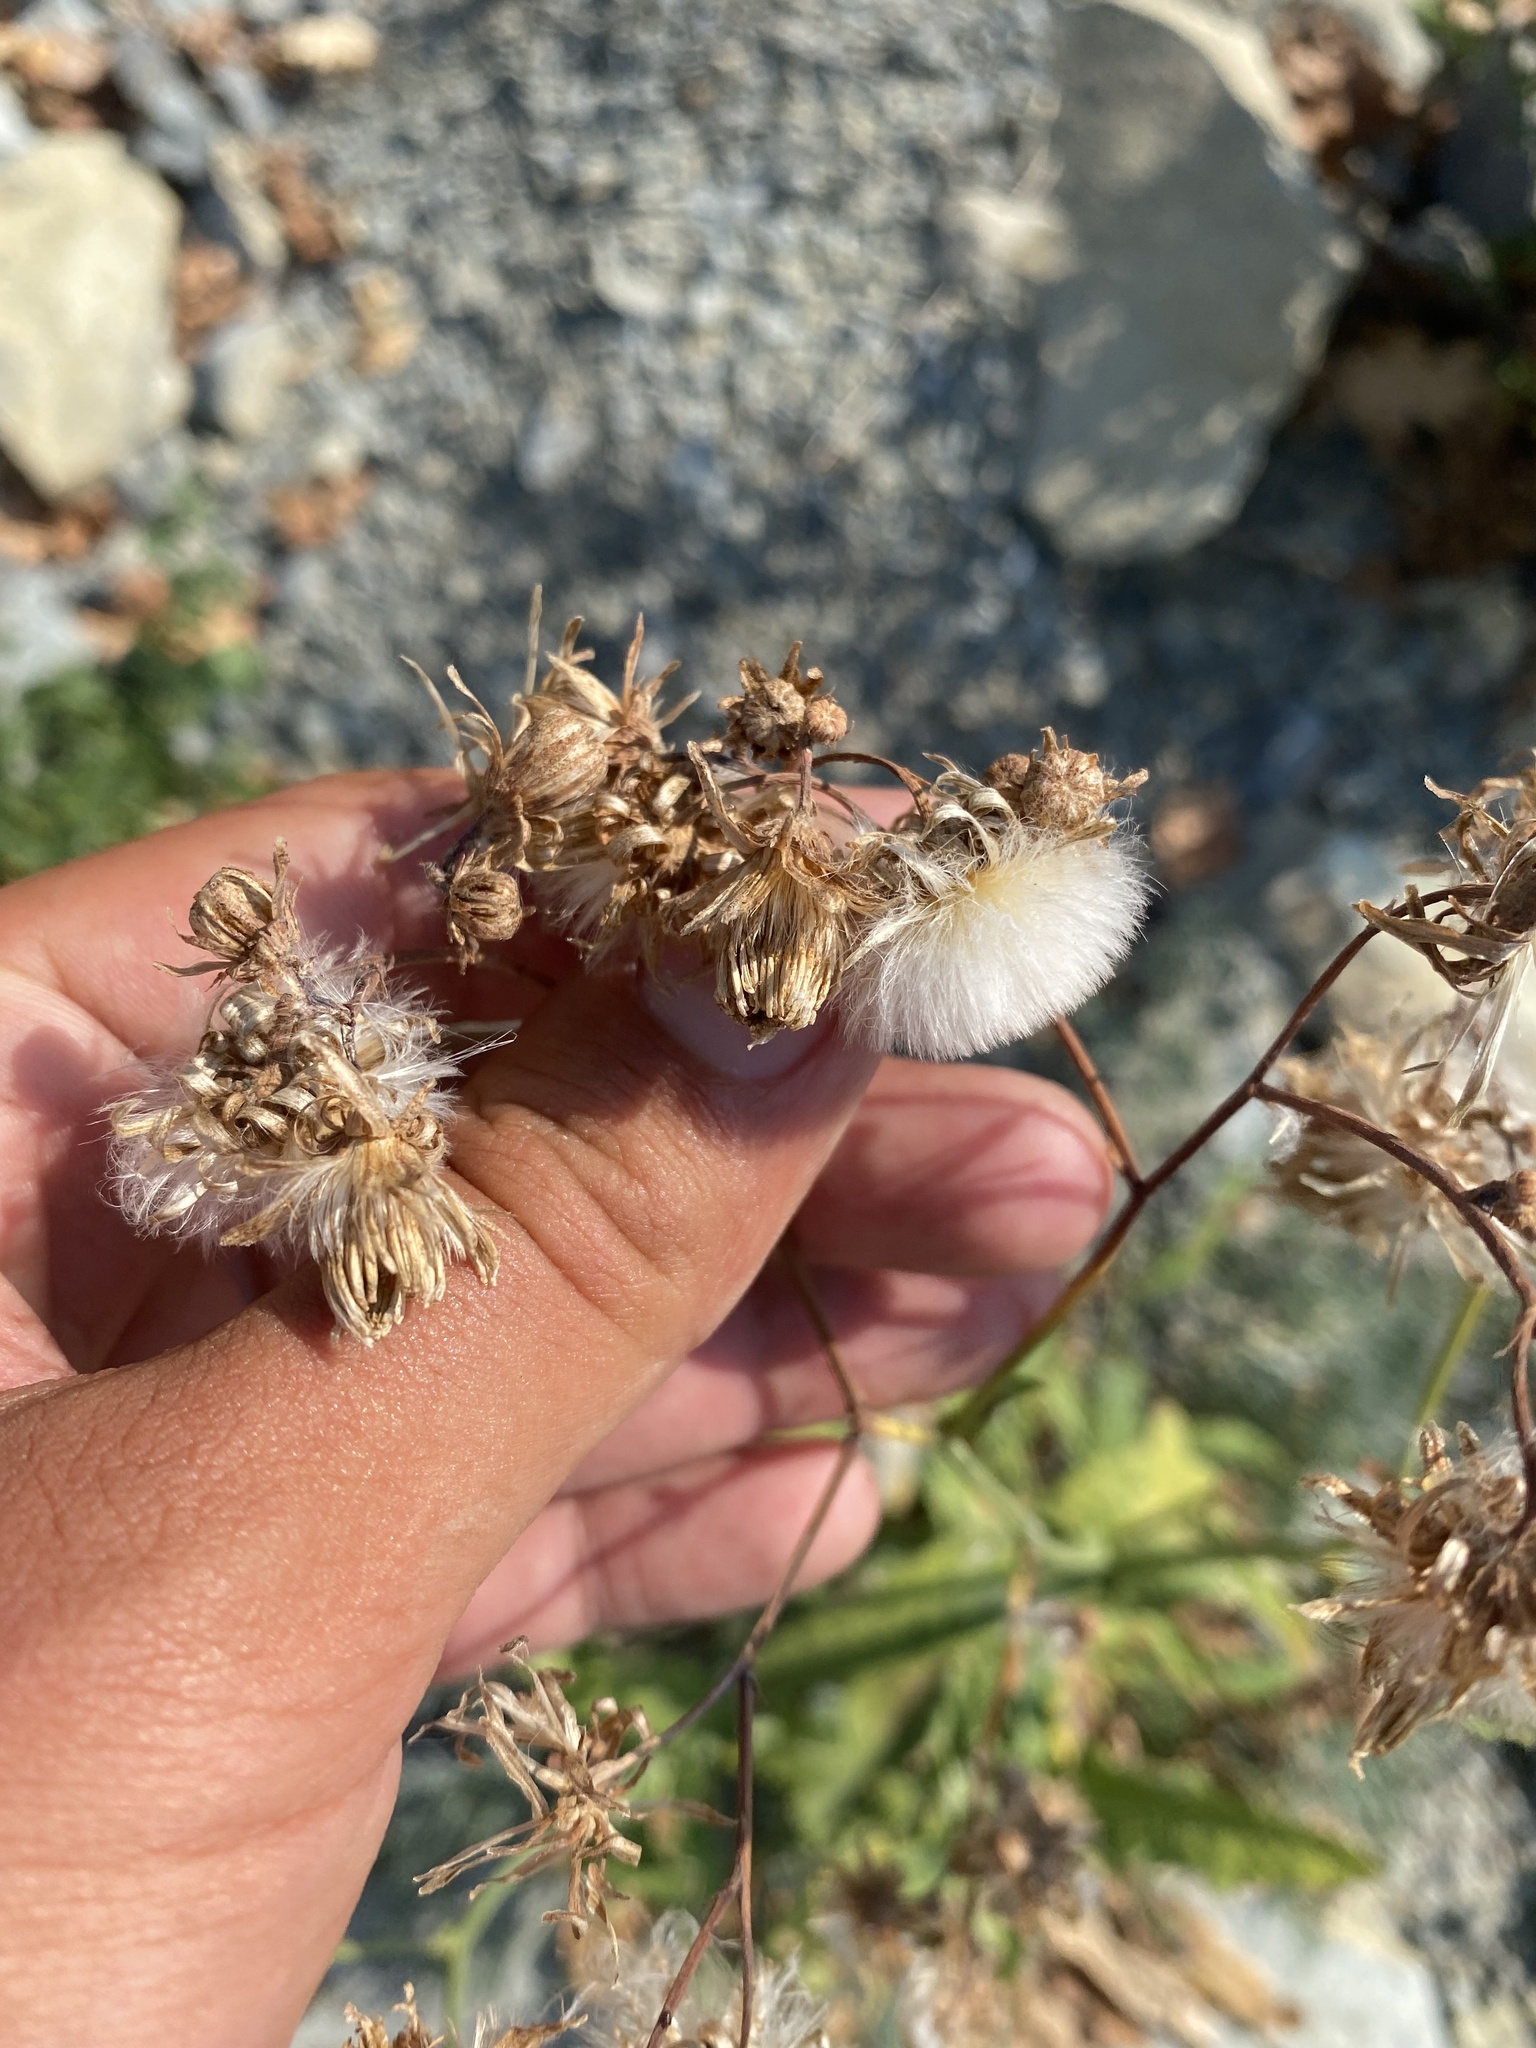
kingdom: Plantae
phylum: Tracheophyta
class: Magnoliopsida
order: Asterales
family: Asteraceae
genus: Sonchus
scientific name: Sonchus arvensis
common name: Perennial sow-thistle
